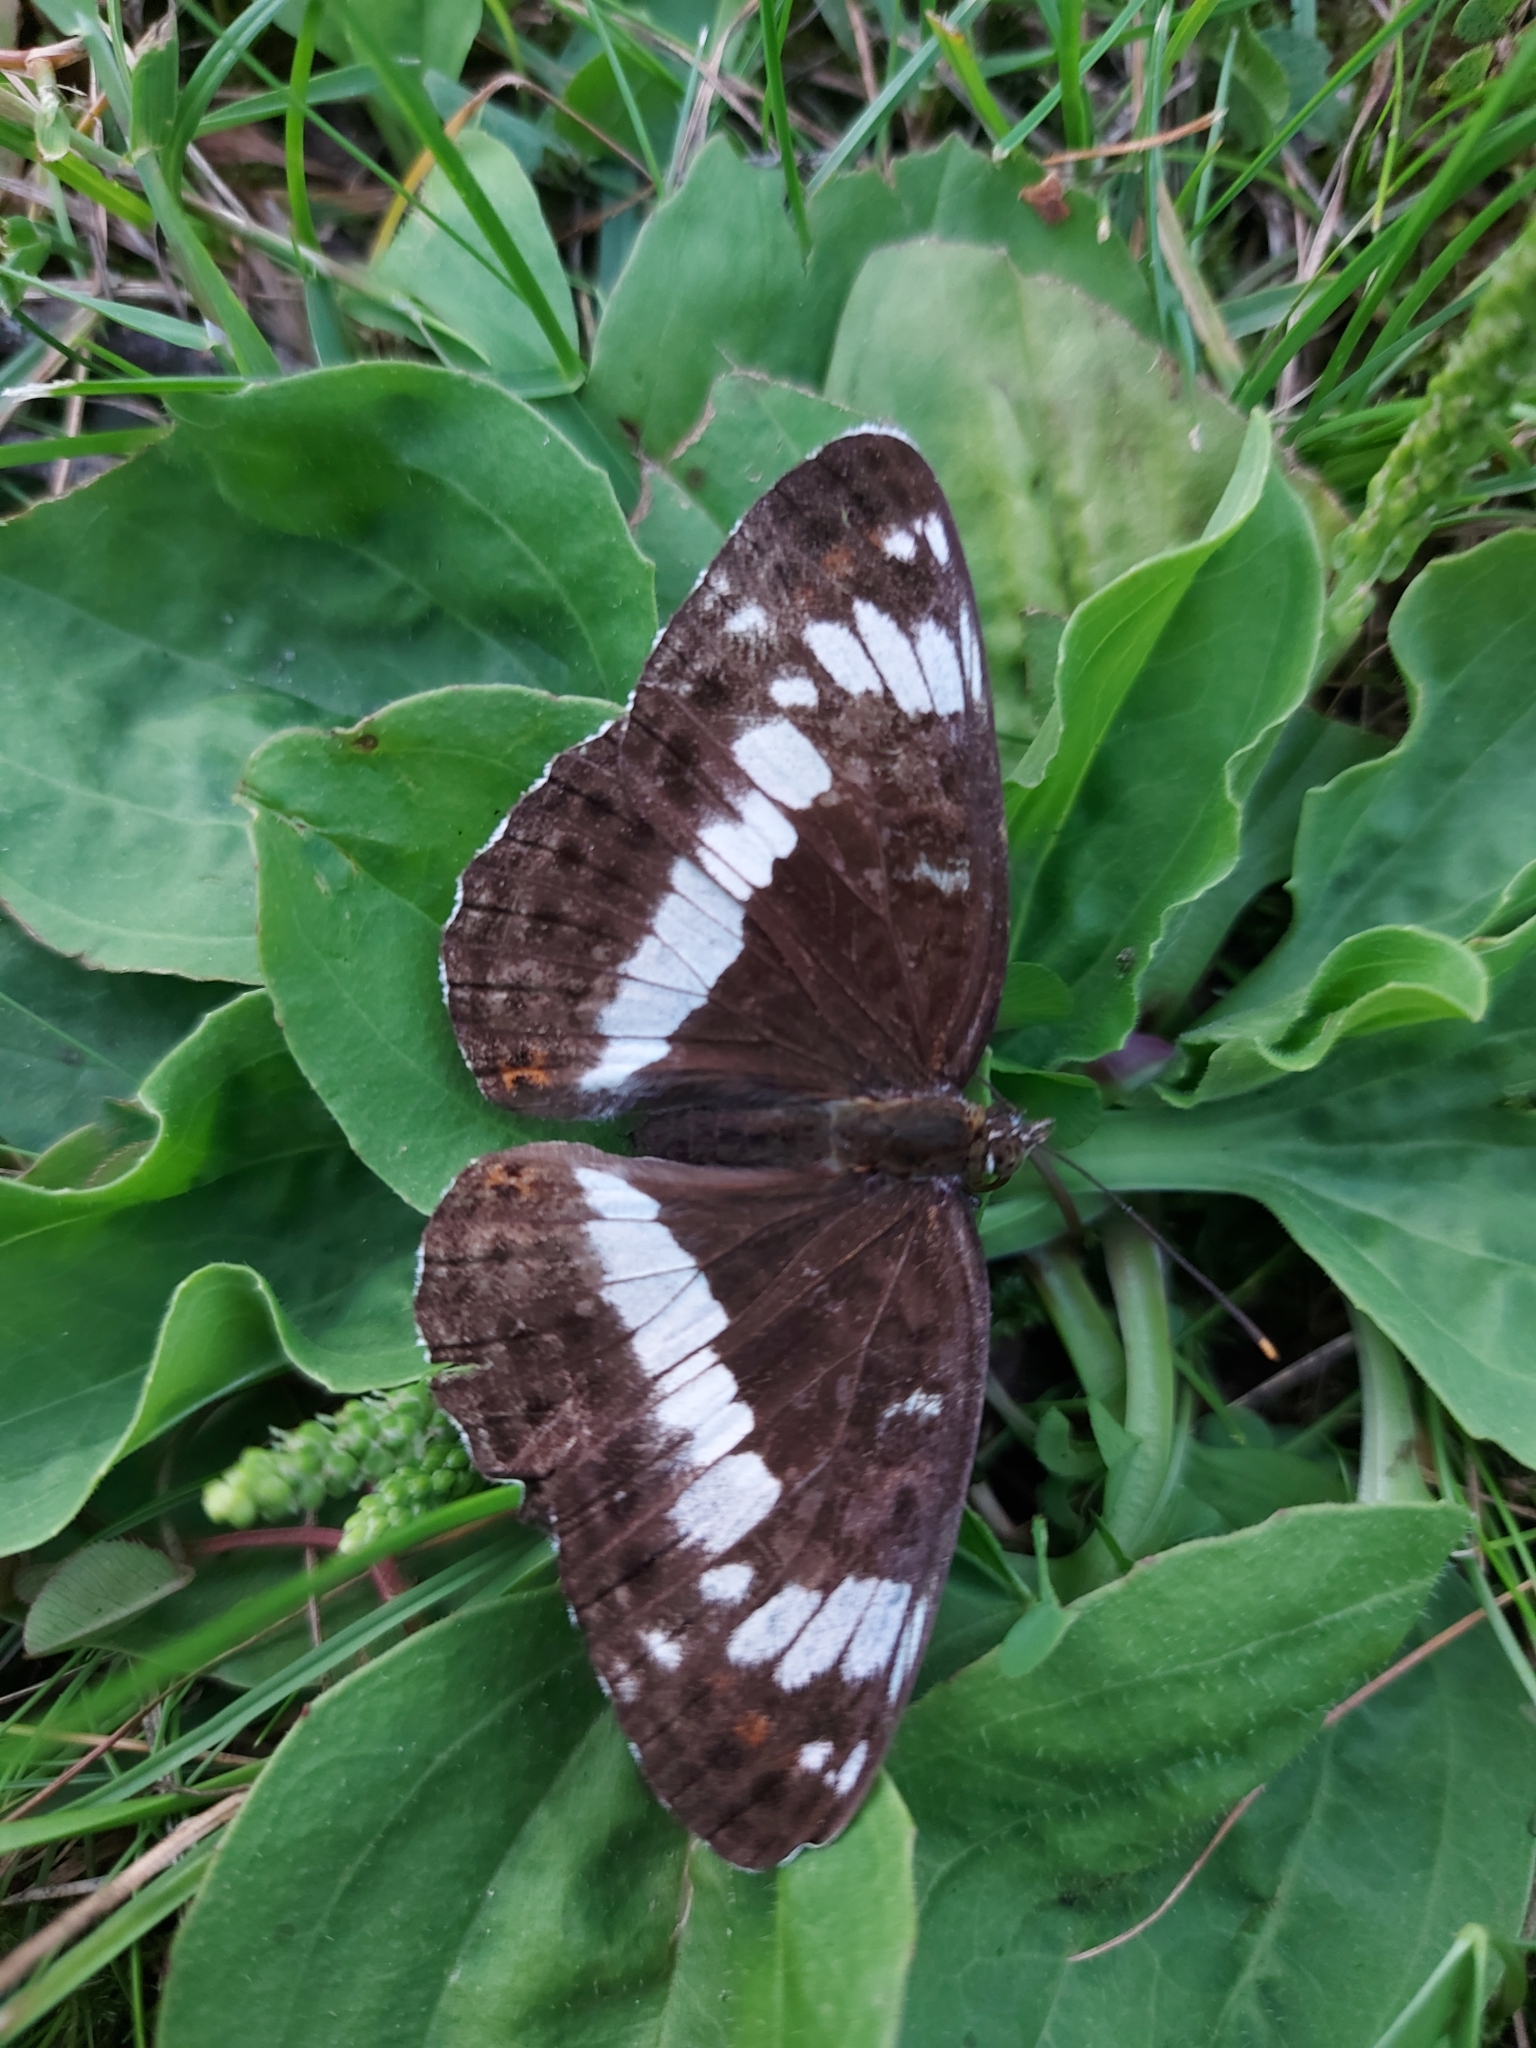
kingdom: Animalia
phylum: Arthropoda
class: Insecta
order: Lepidoptera
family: Nymphalidae
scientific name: Nymphalidae
